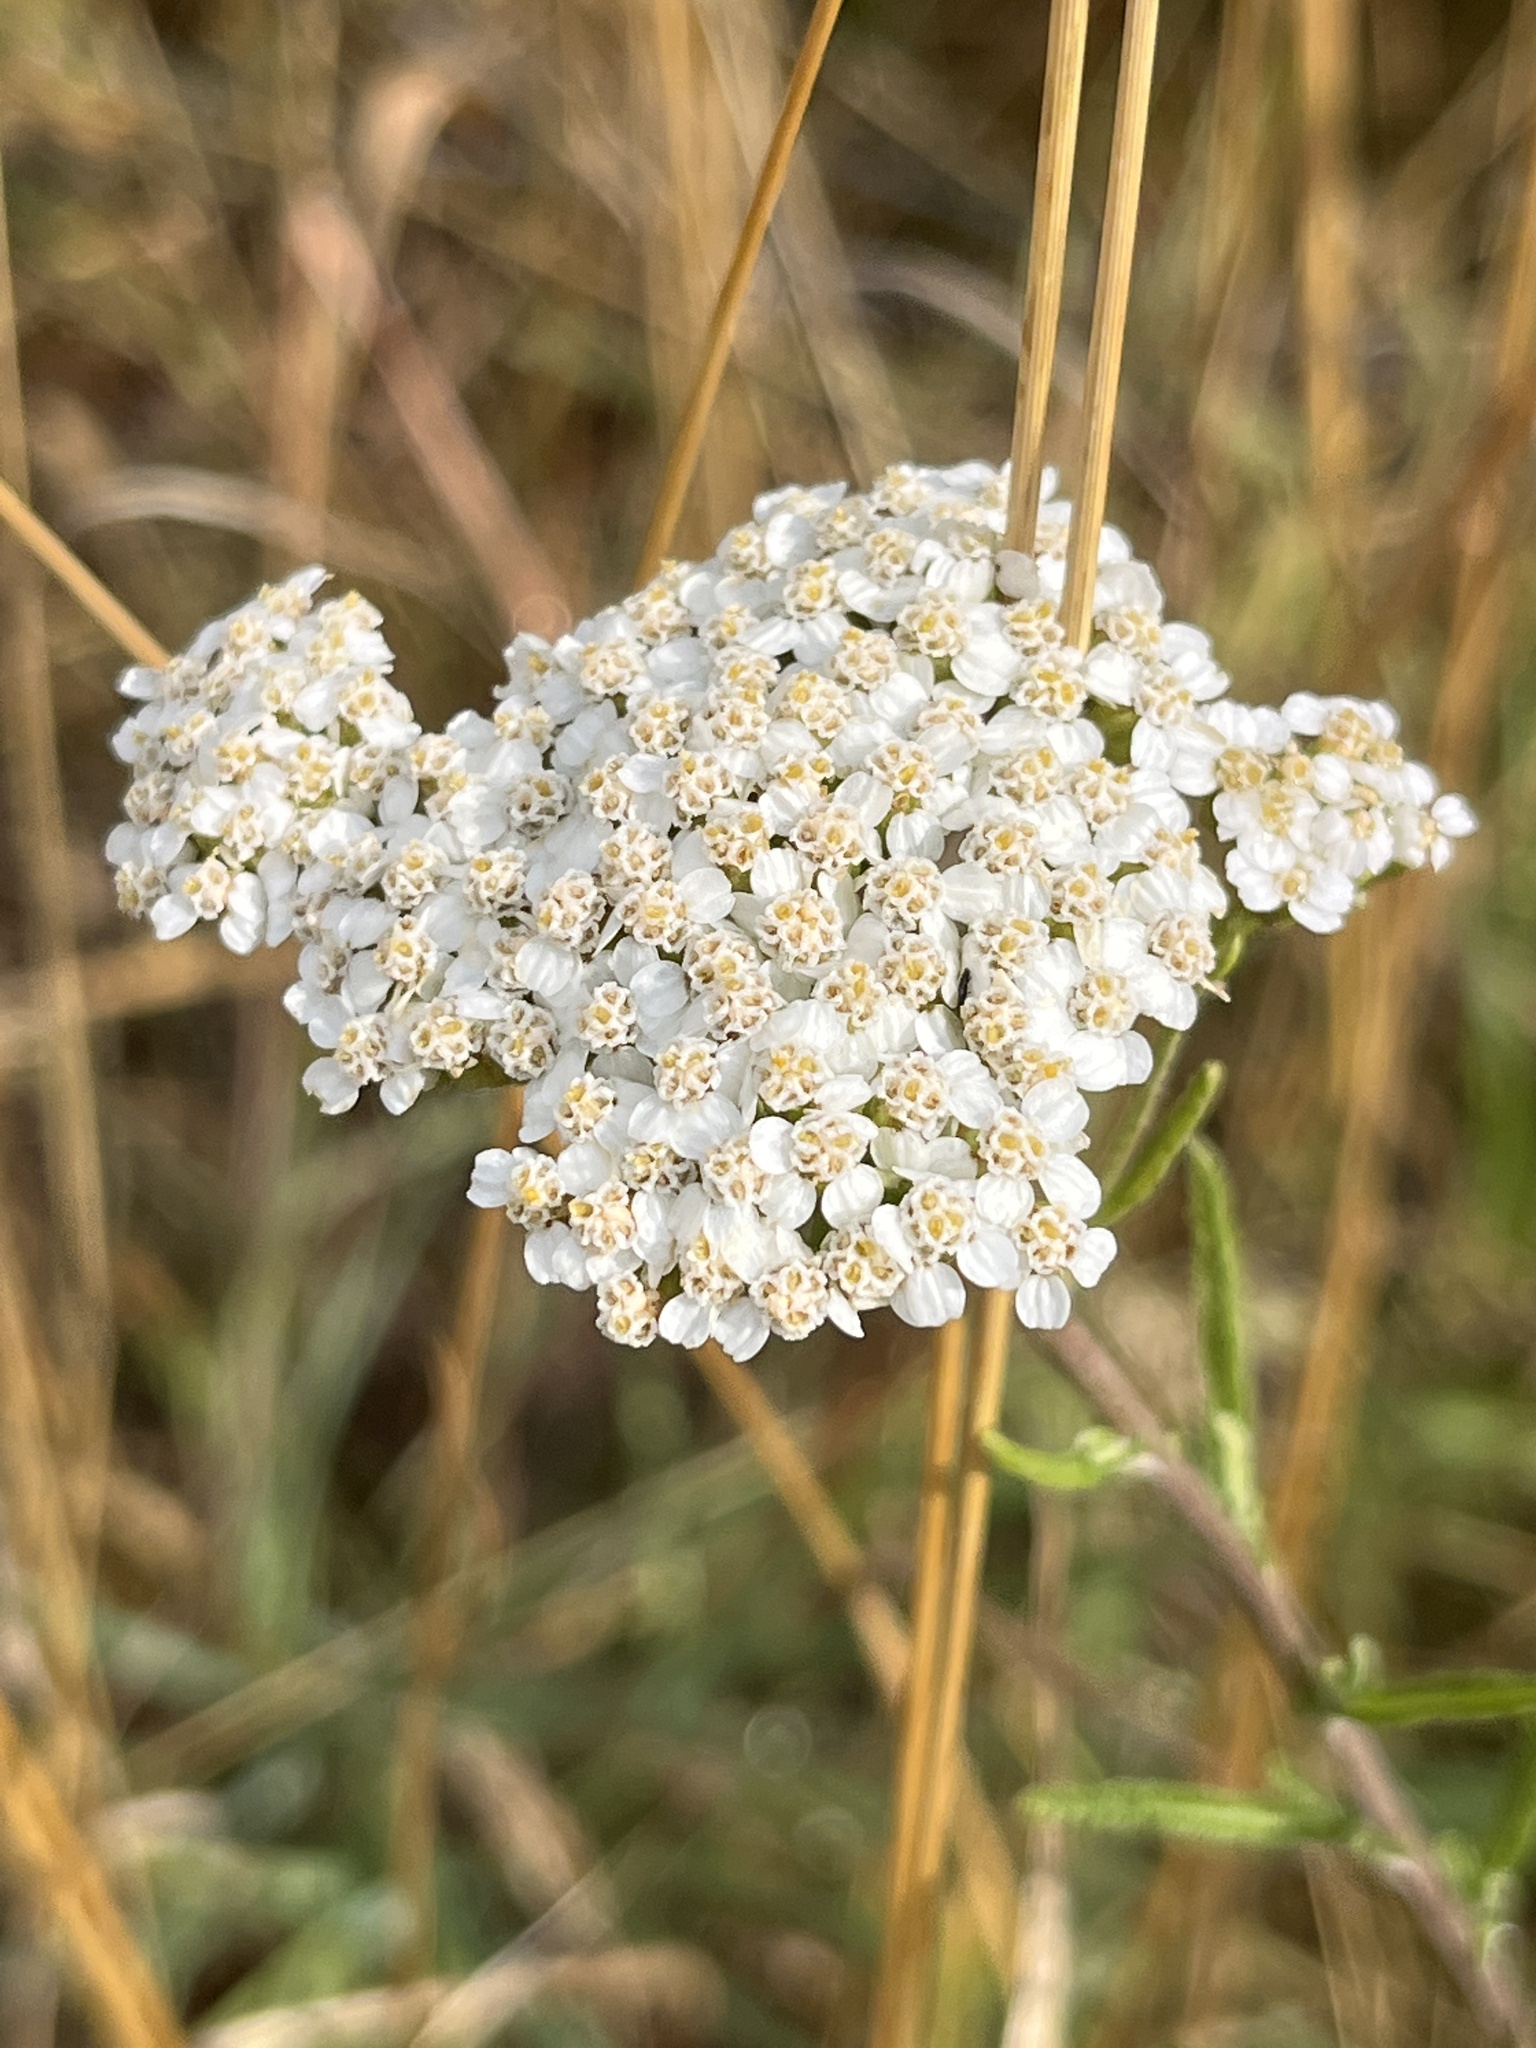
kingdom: Plantae
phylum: Tracheophyta
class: Magnoliopsida
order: Asterales
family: Asteraceae
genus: Achillea
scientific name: Achillea millefolium
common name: Yarrow
